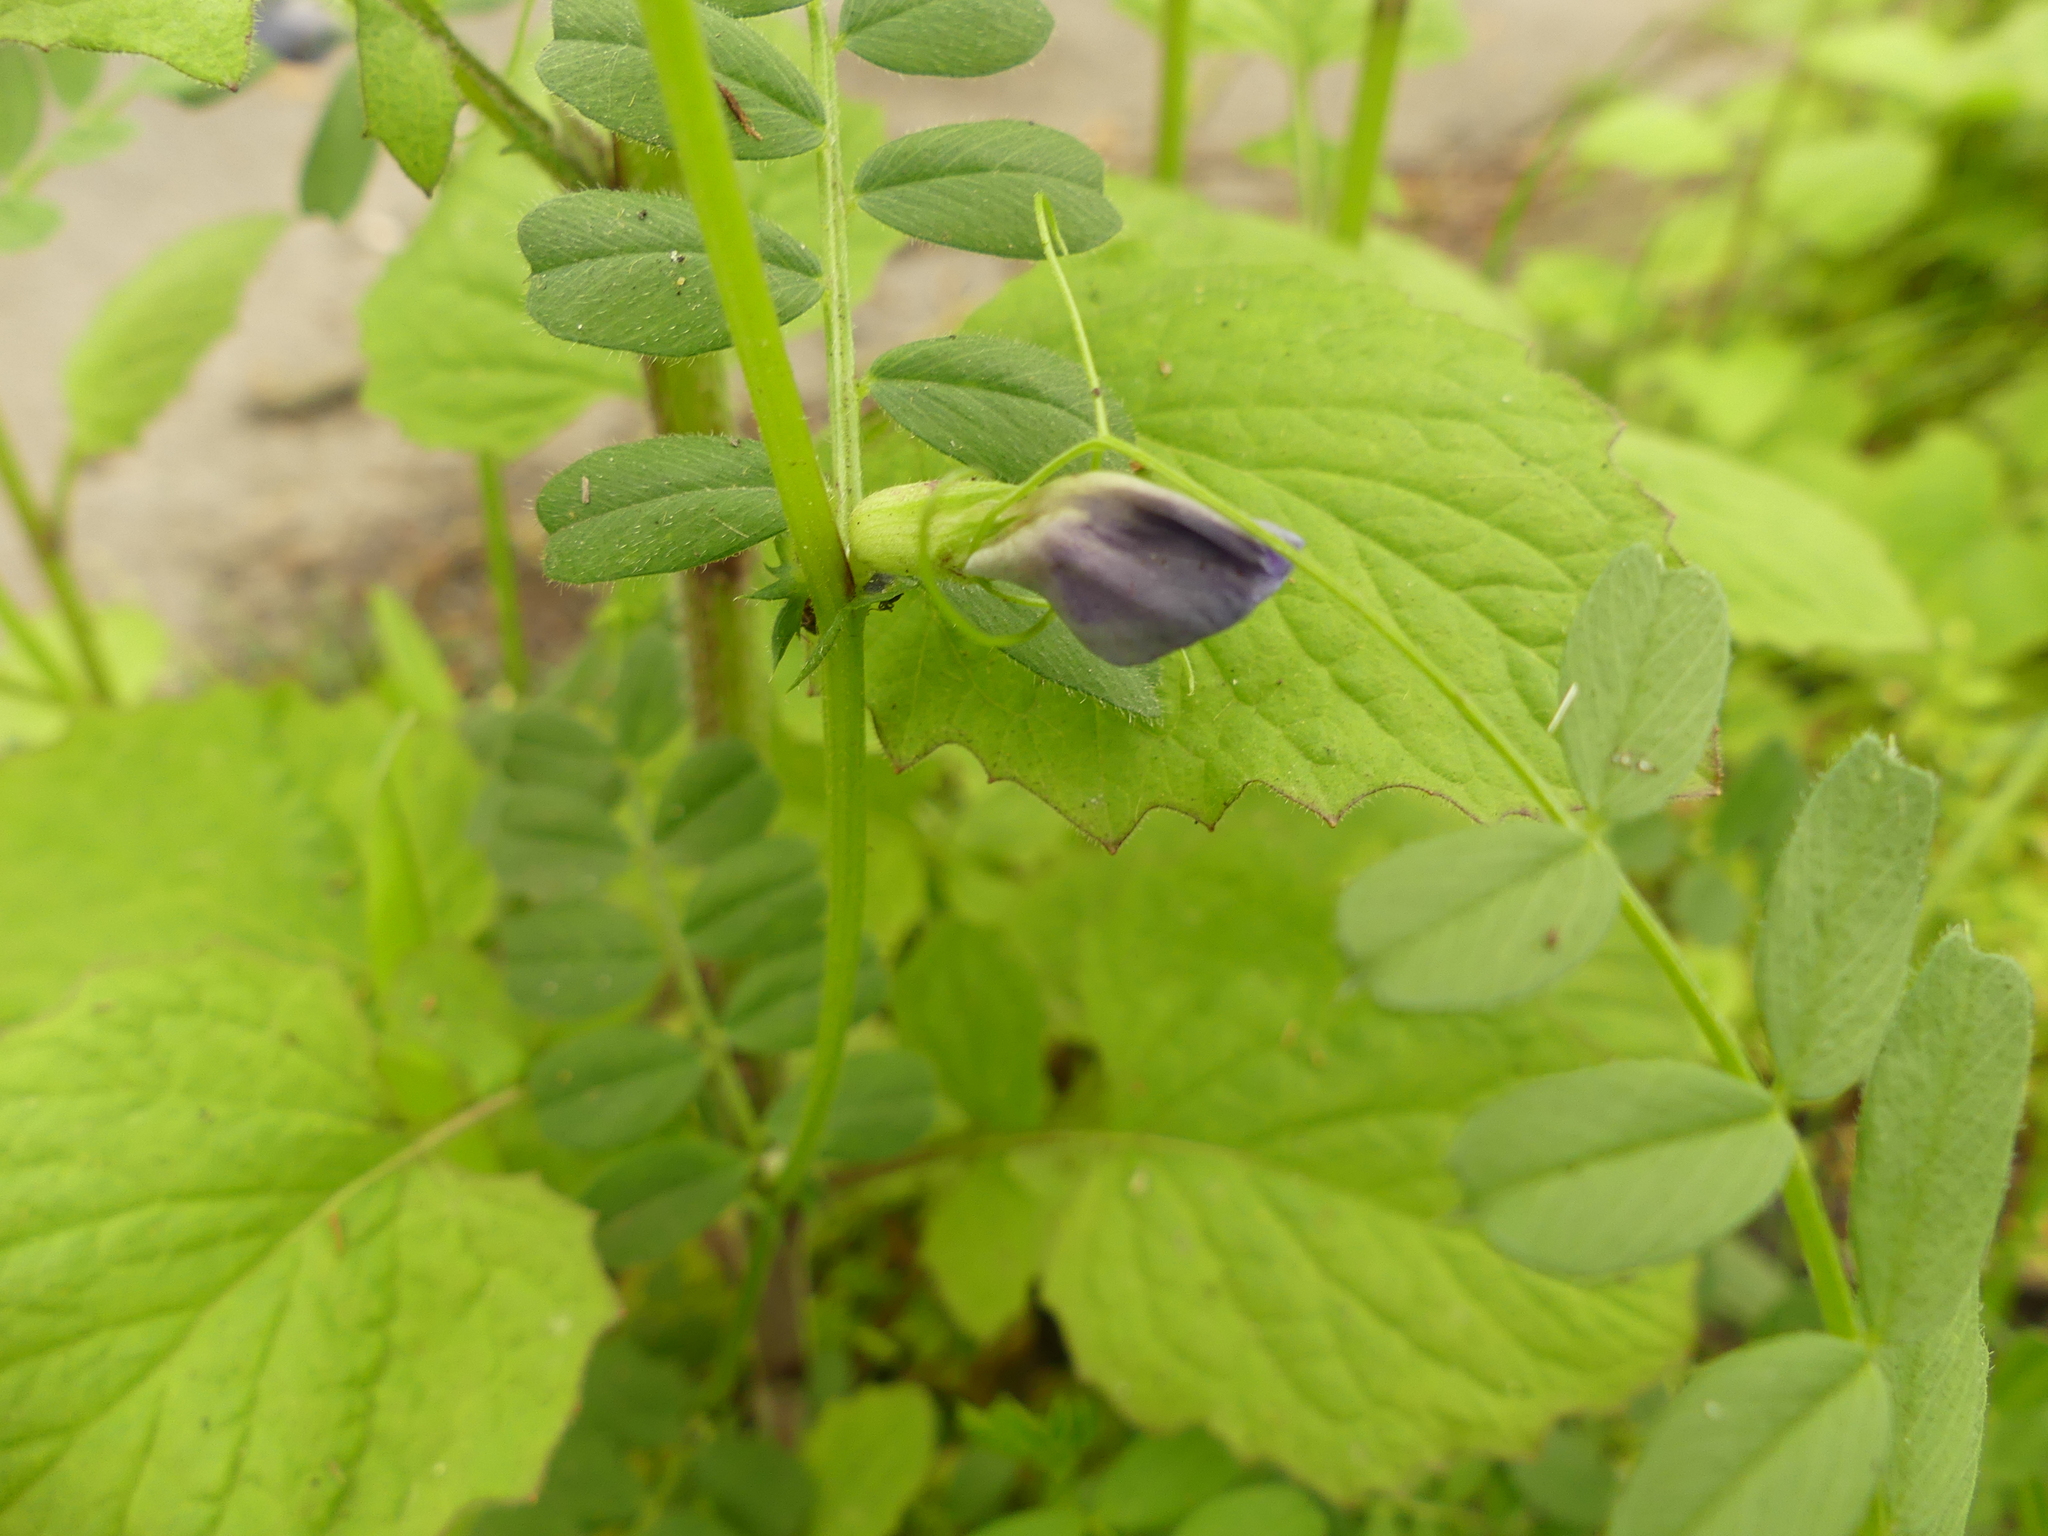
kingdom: Plantae
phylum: Tracheophyta
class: Magnoliopsida
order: Fabales
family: Fabaceae
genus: Vicia
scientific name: Vicia sativa
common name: Garden vetch
